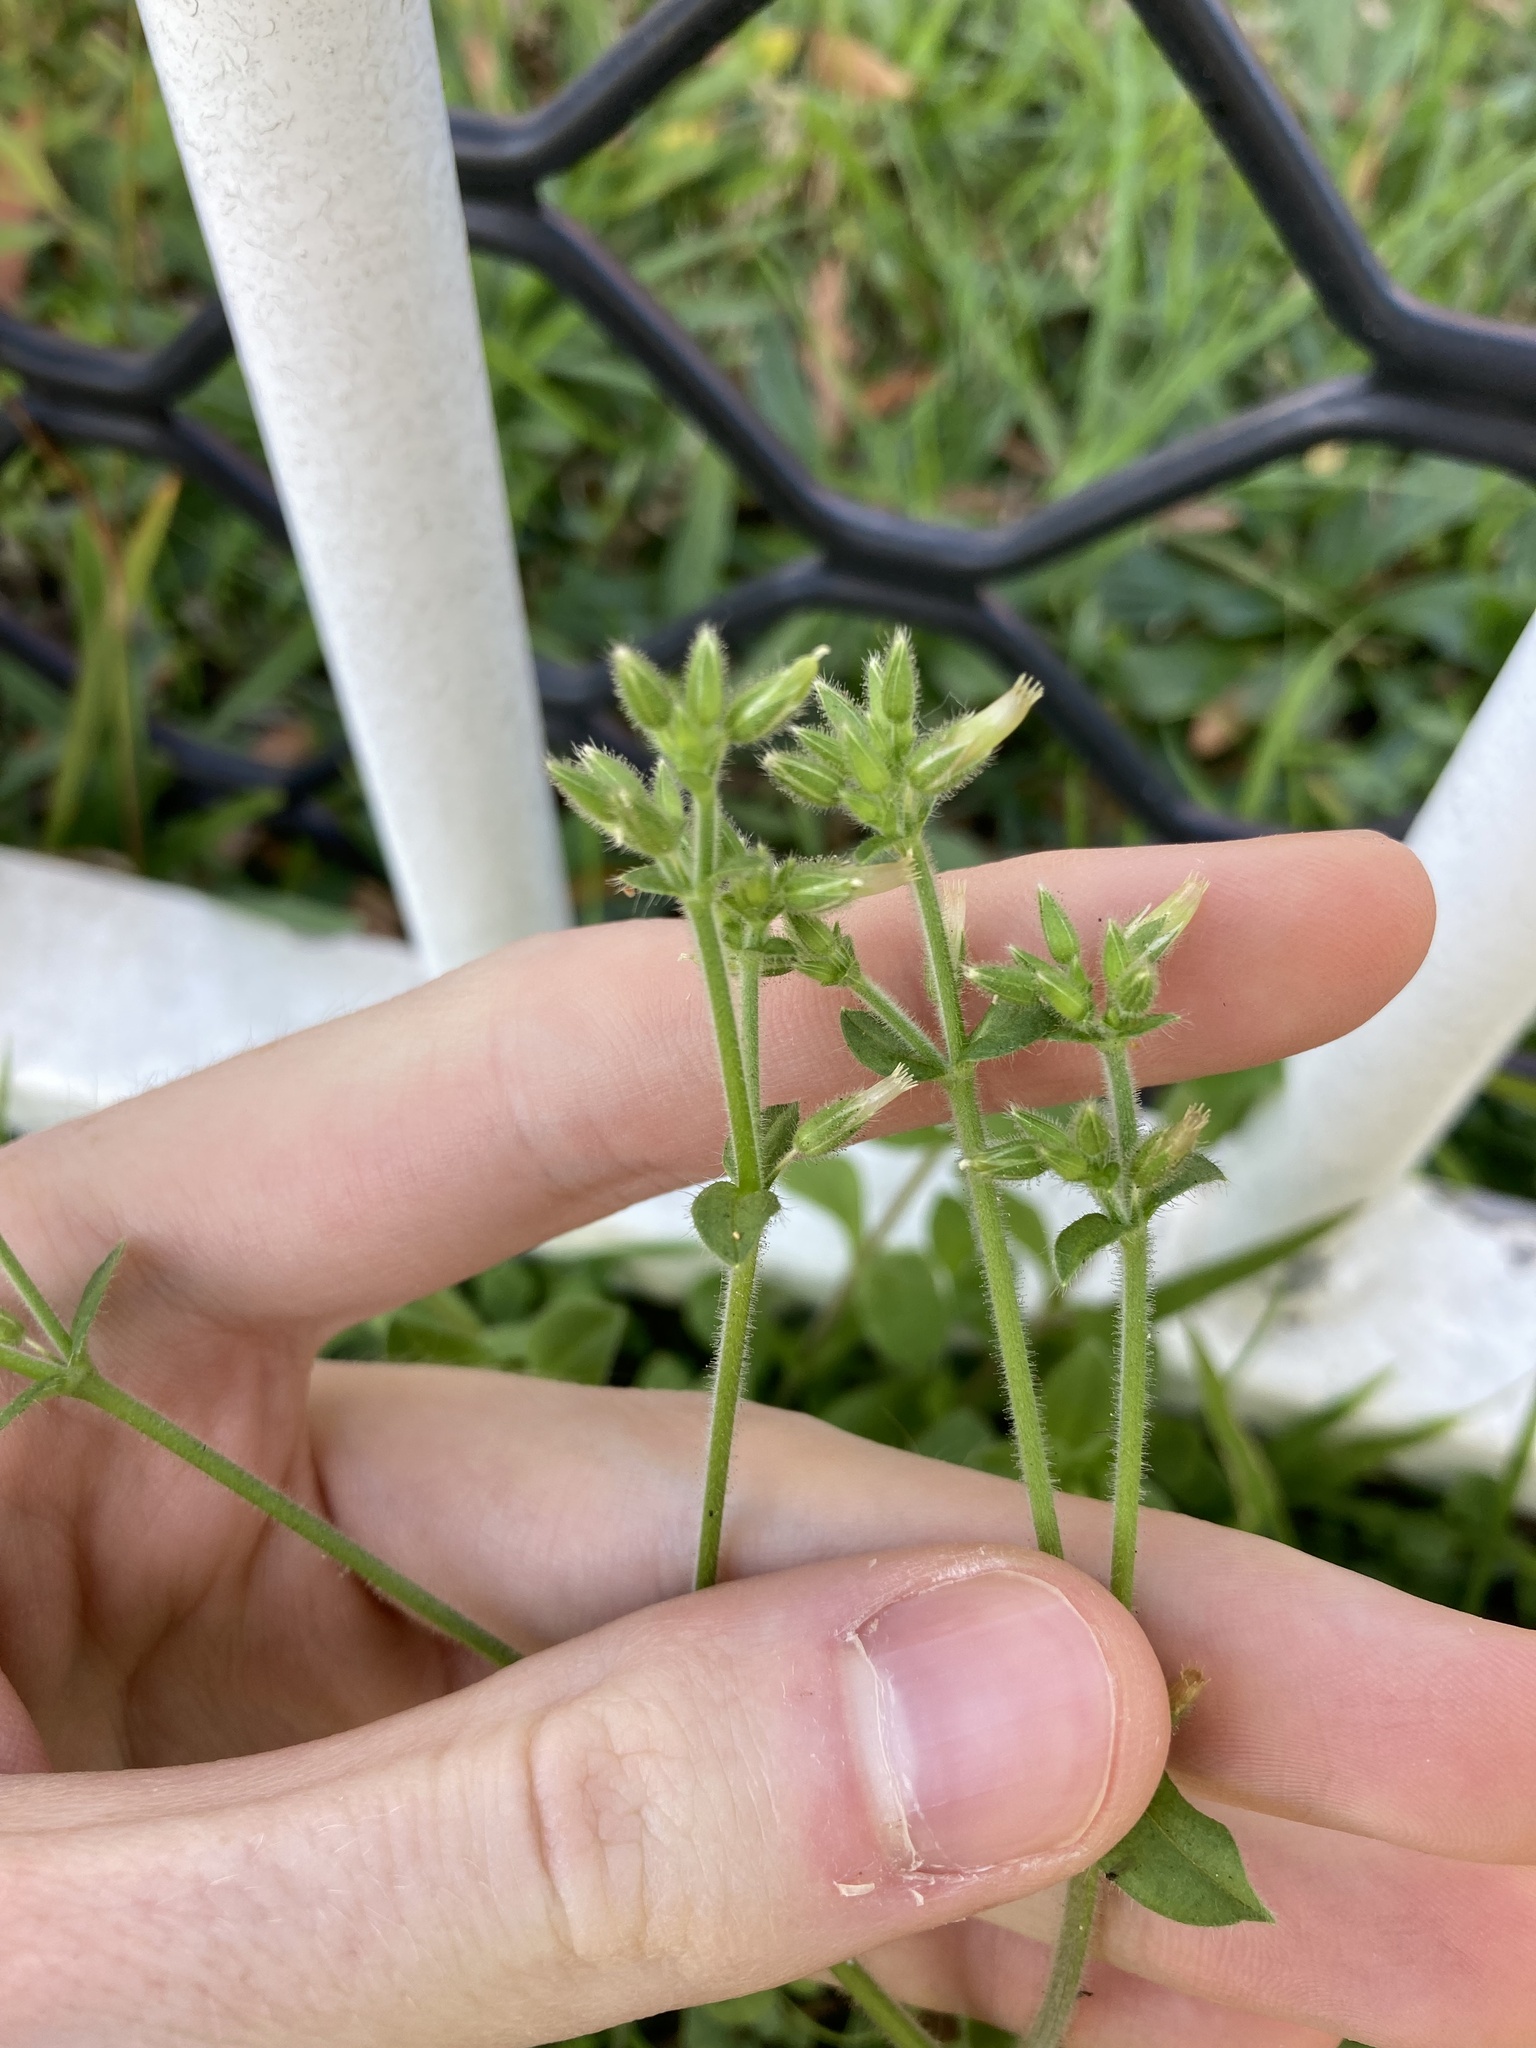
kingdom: Plantae
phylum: Tracheophyta
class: Magnoliopsida
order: Caryophyllales
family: Caryophyllaceae
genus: Cerastium
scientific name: Cerastium glomeratum
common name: Sticky chickweed
